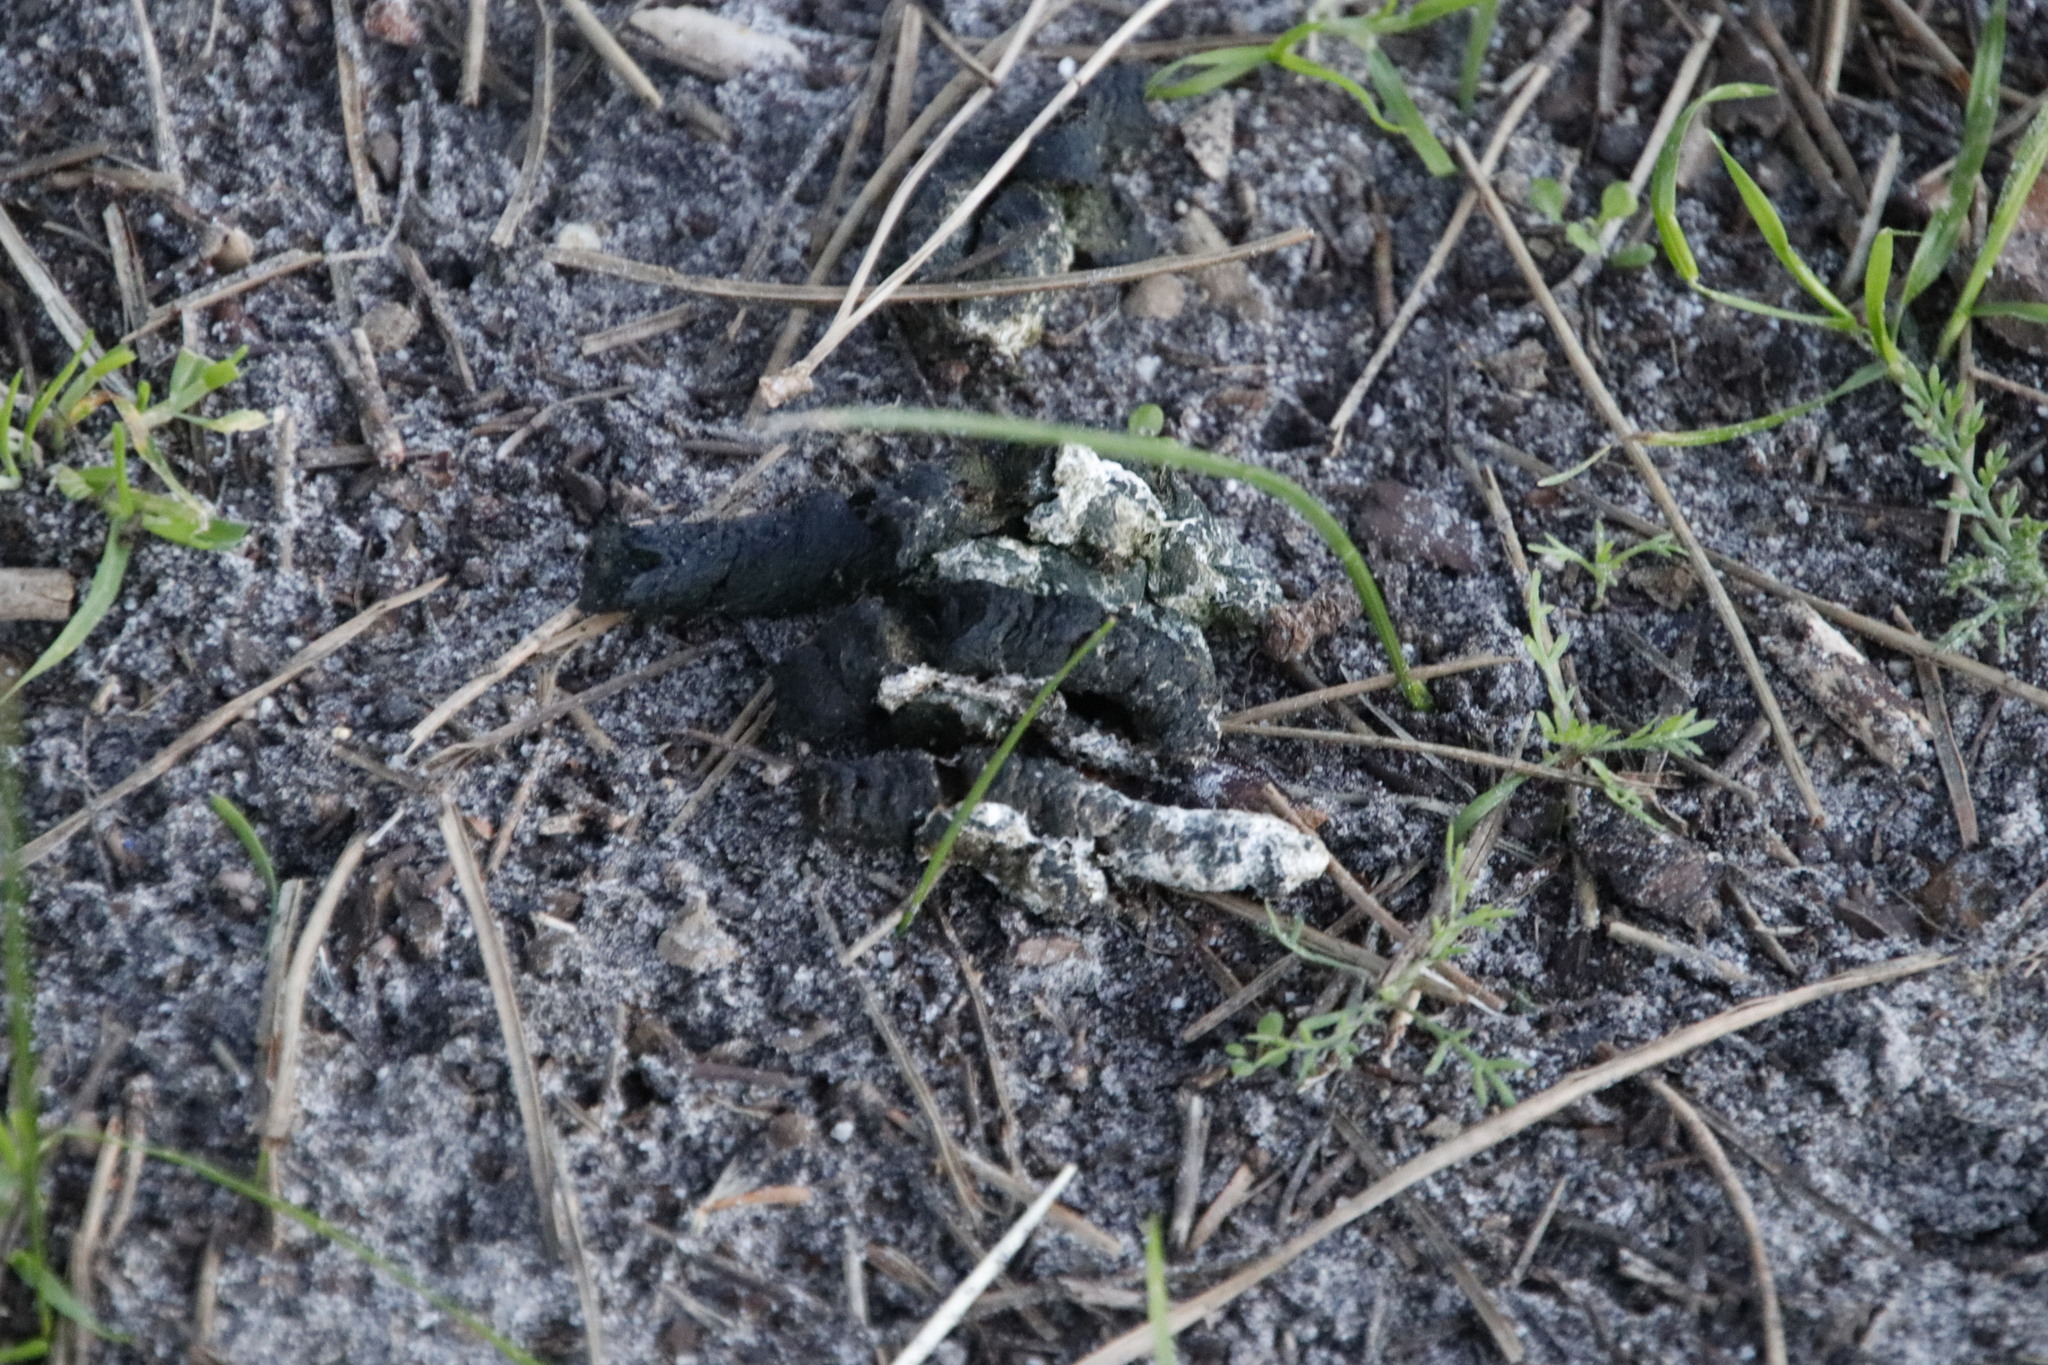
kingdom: Animalia
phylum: Chordata
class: Aves
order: Anseriformes
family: Anatidae
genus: Alopochen
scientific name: Alopochen aegyptiaca
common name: Egyptian goose
